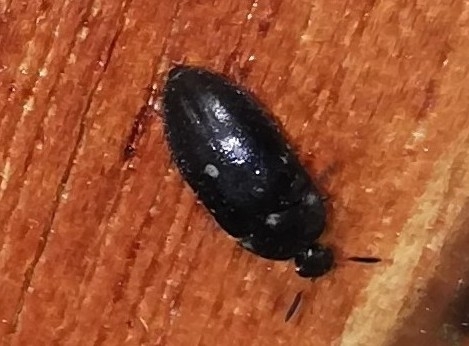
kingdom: Animalia
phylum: Arthropoda
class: Insecta
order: Coleoptera
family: Dermestidae
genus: Attagenus
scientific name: Attagenus pellio
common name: Two-spotted carpet beetle
